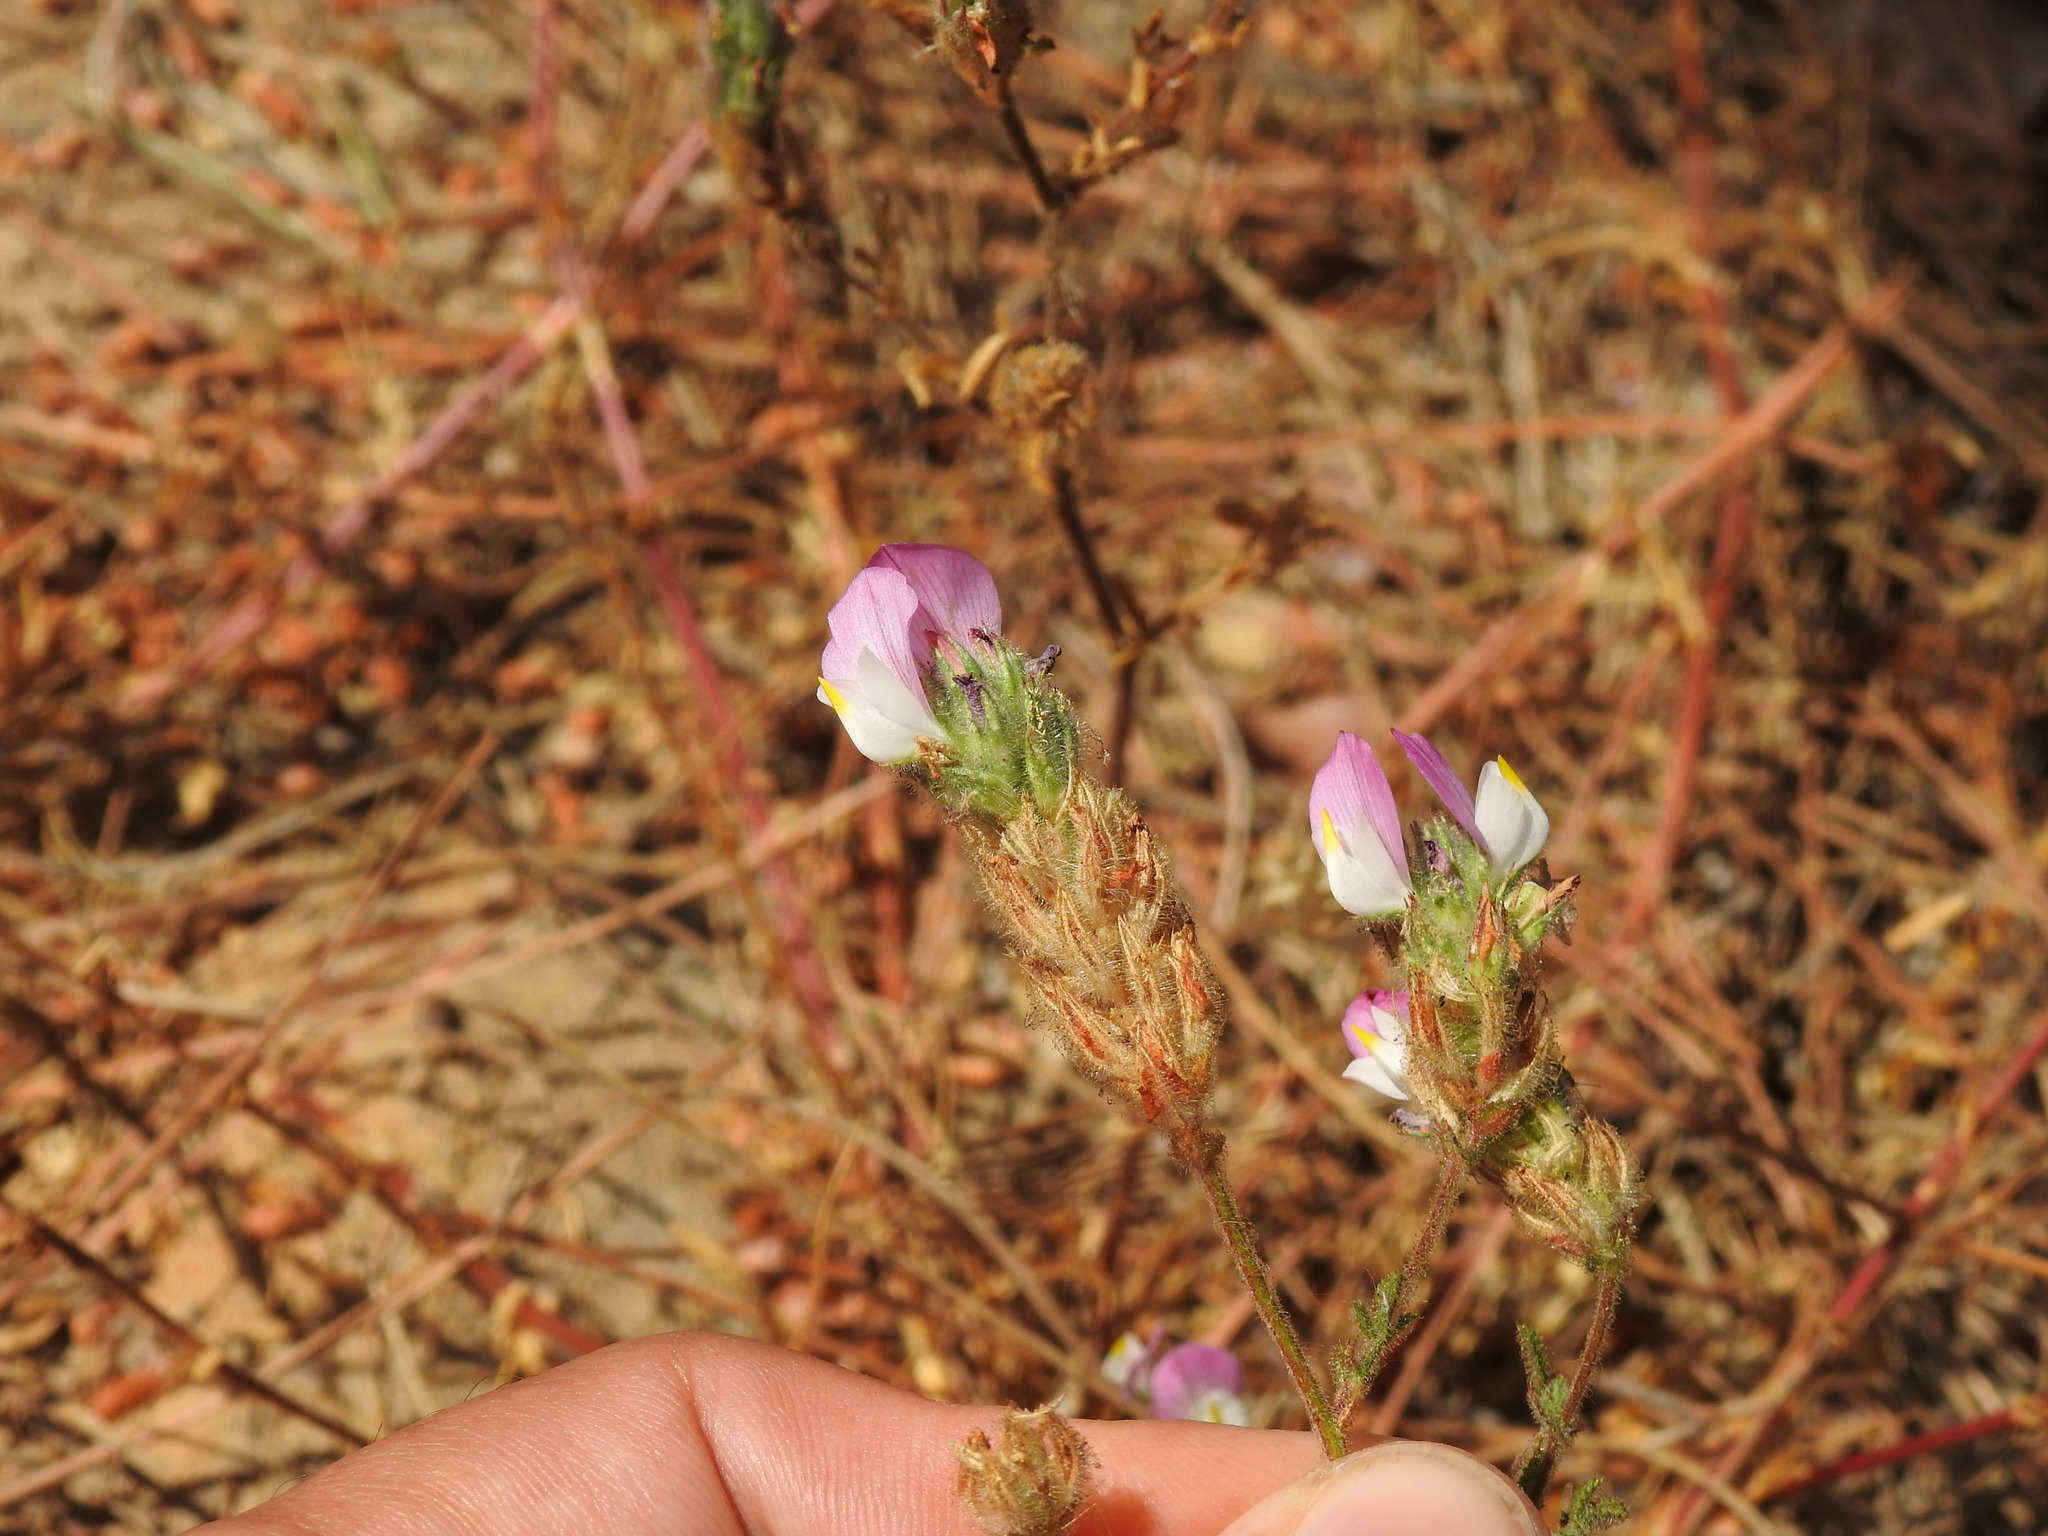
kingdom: Plantae
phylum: Tracheophyta
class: Magnoliopsida
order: Fabales
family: Fabaceae
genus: Ononis
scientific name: Ononis baetica
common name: Andalucian restharrow
